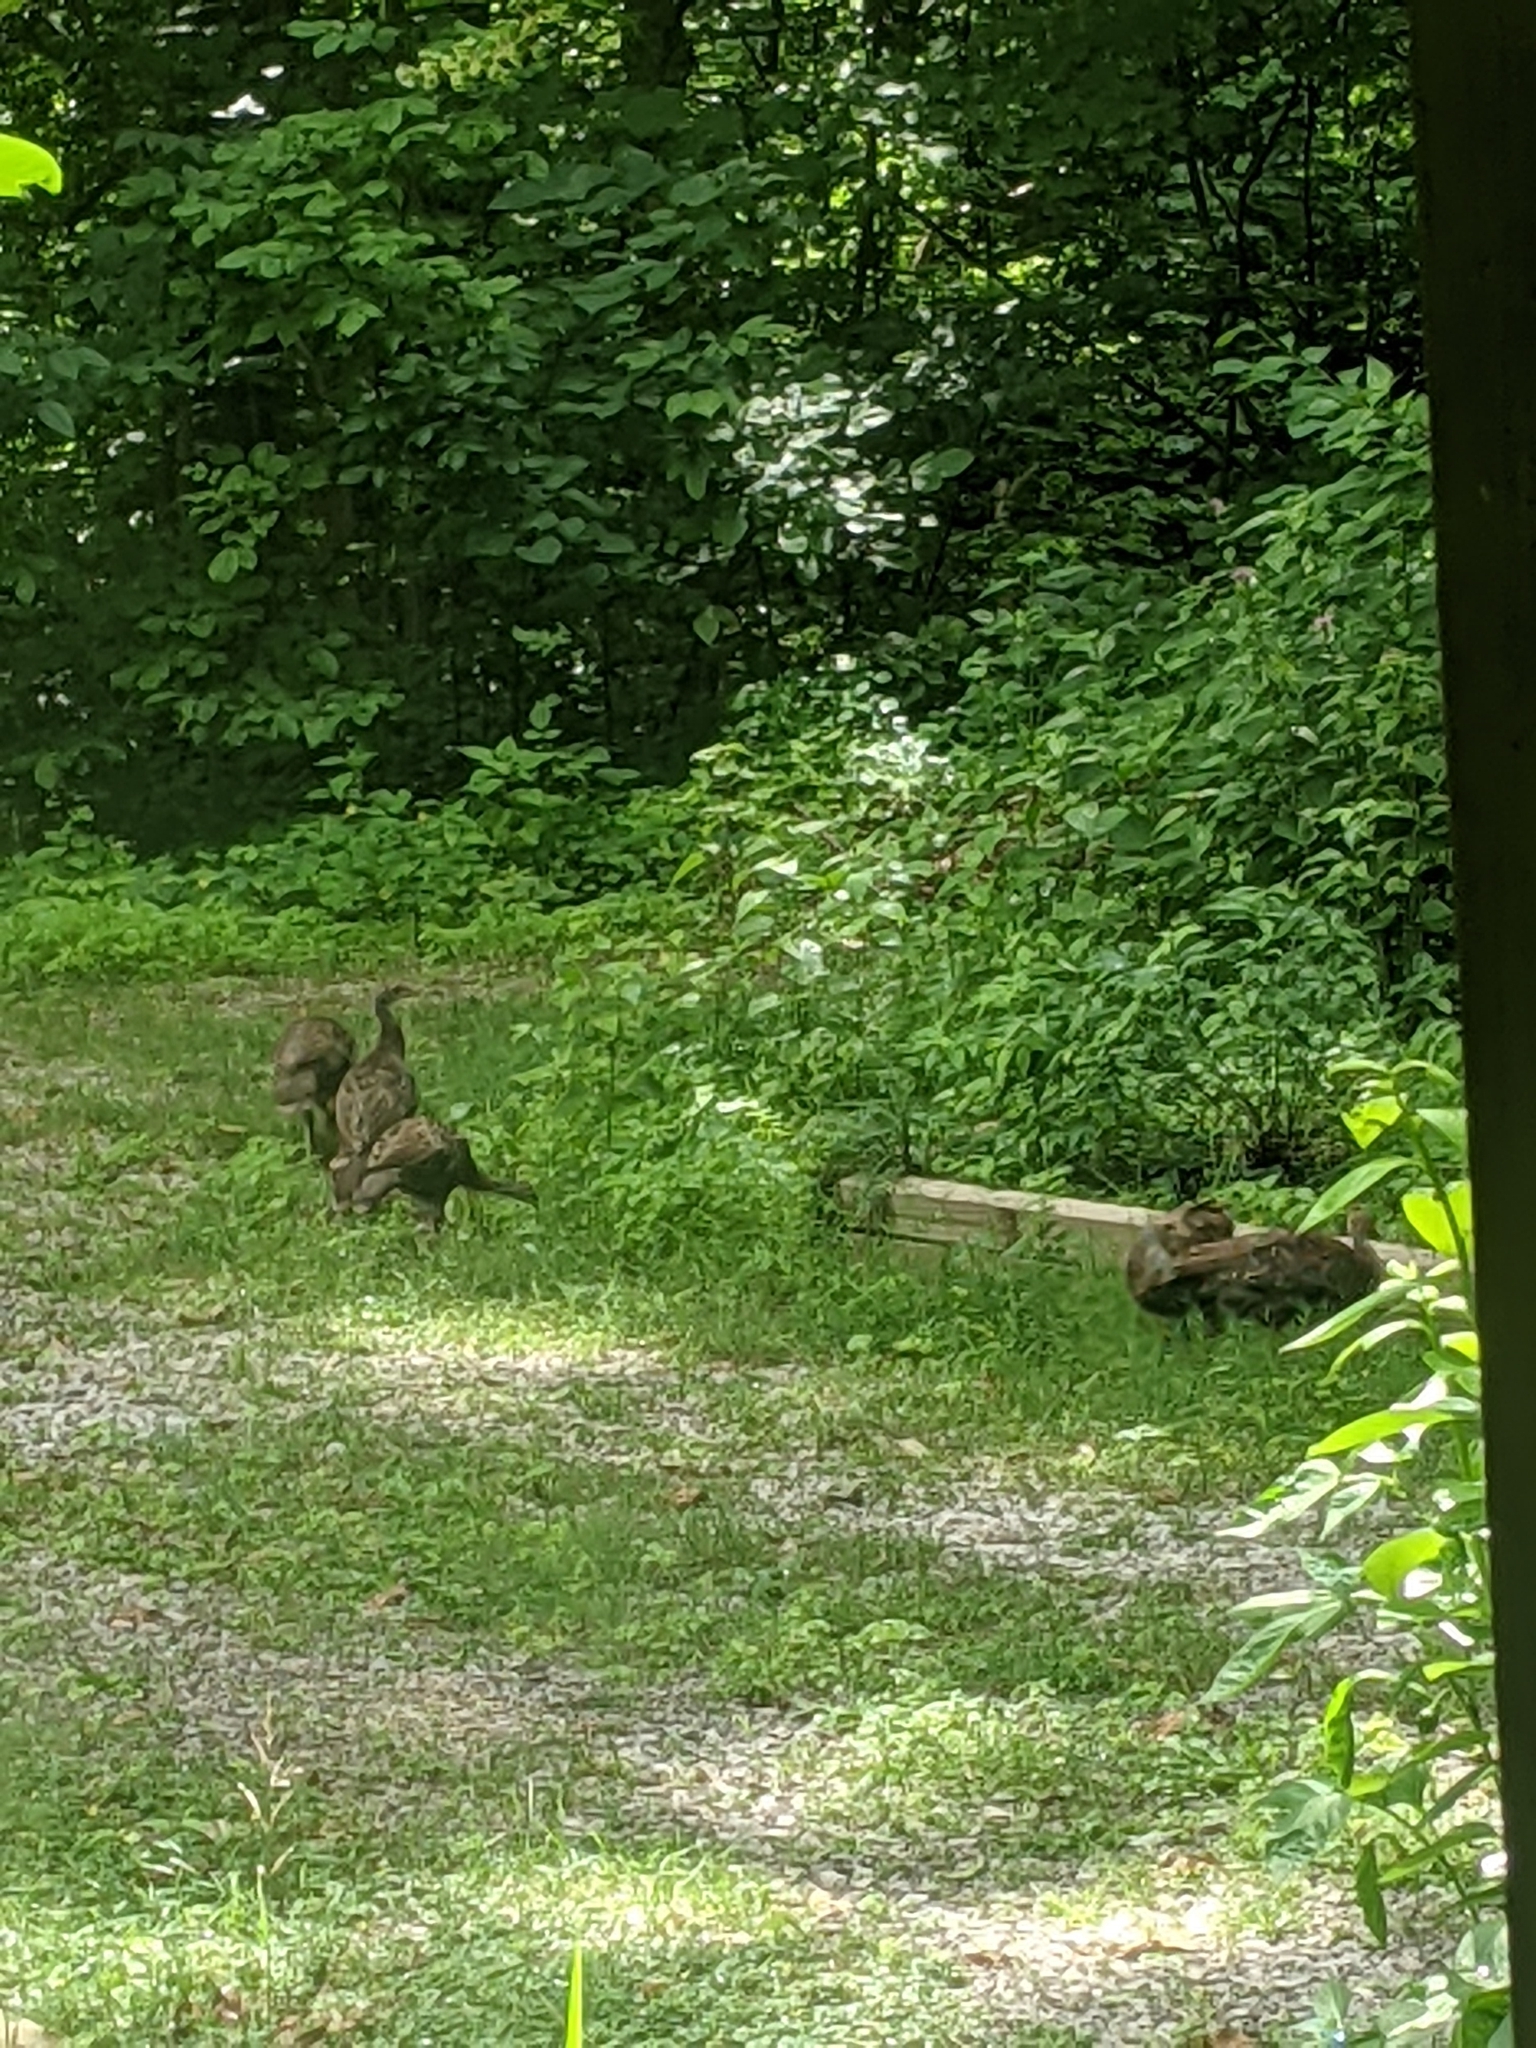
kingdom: Animalia
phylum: Chordata
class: Aves
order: Galliformes
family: Phasianidae
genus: Meleagris
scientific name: Meleagris gallopavo
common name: Wild turkey
